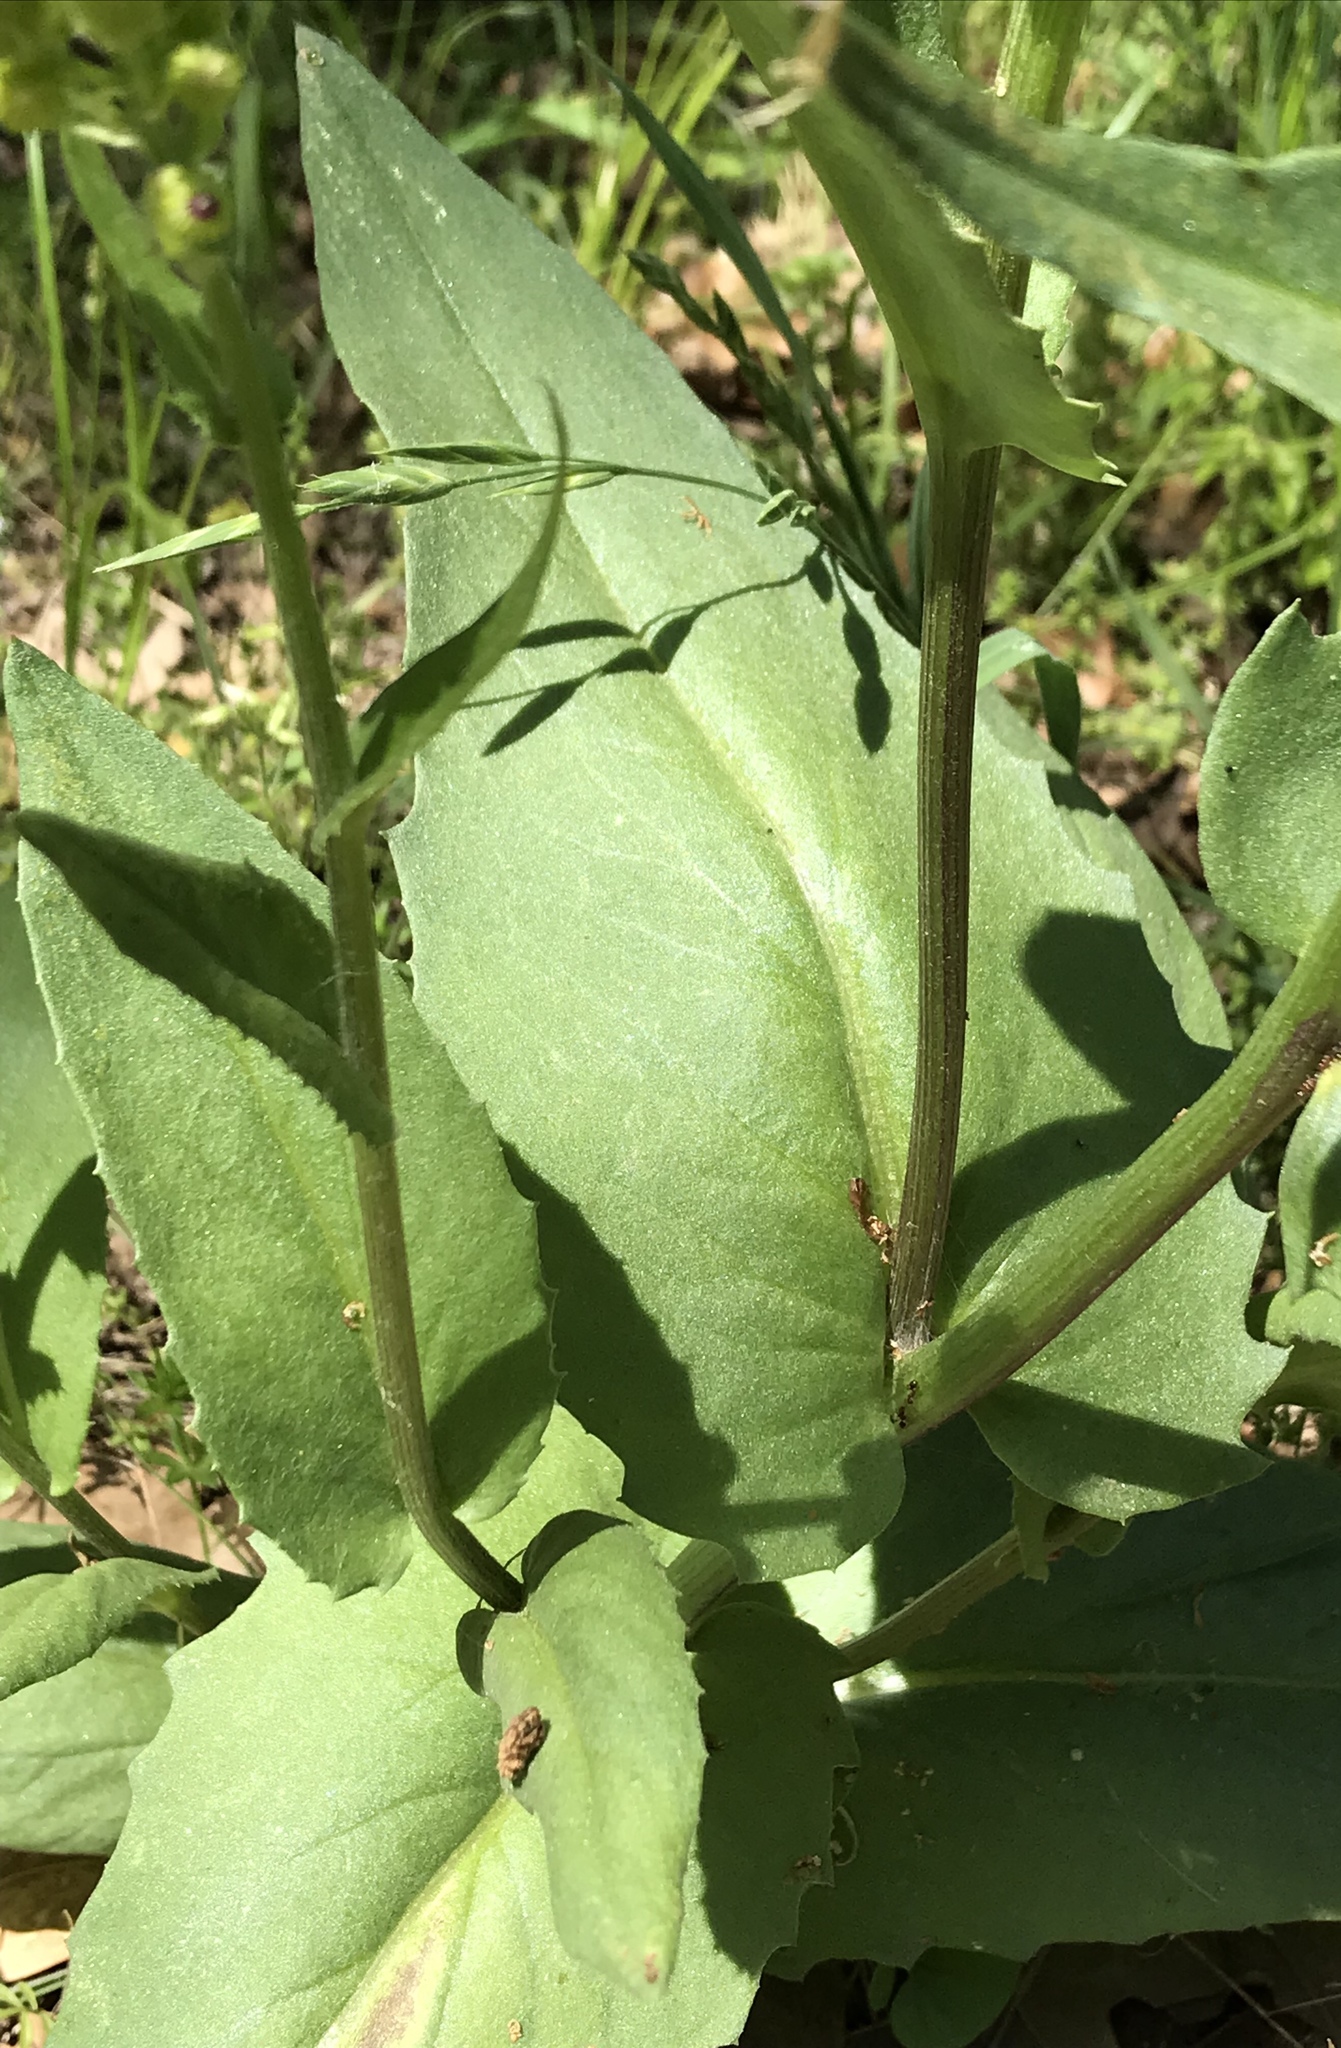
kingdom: Plantae
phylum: Tracheophyta
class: Magnoliopsida
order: Asterales
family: Asteraceae
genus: Senecio
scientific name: Senecio ampullaceus
